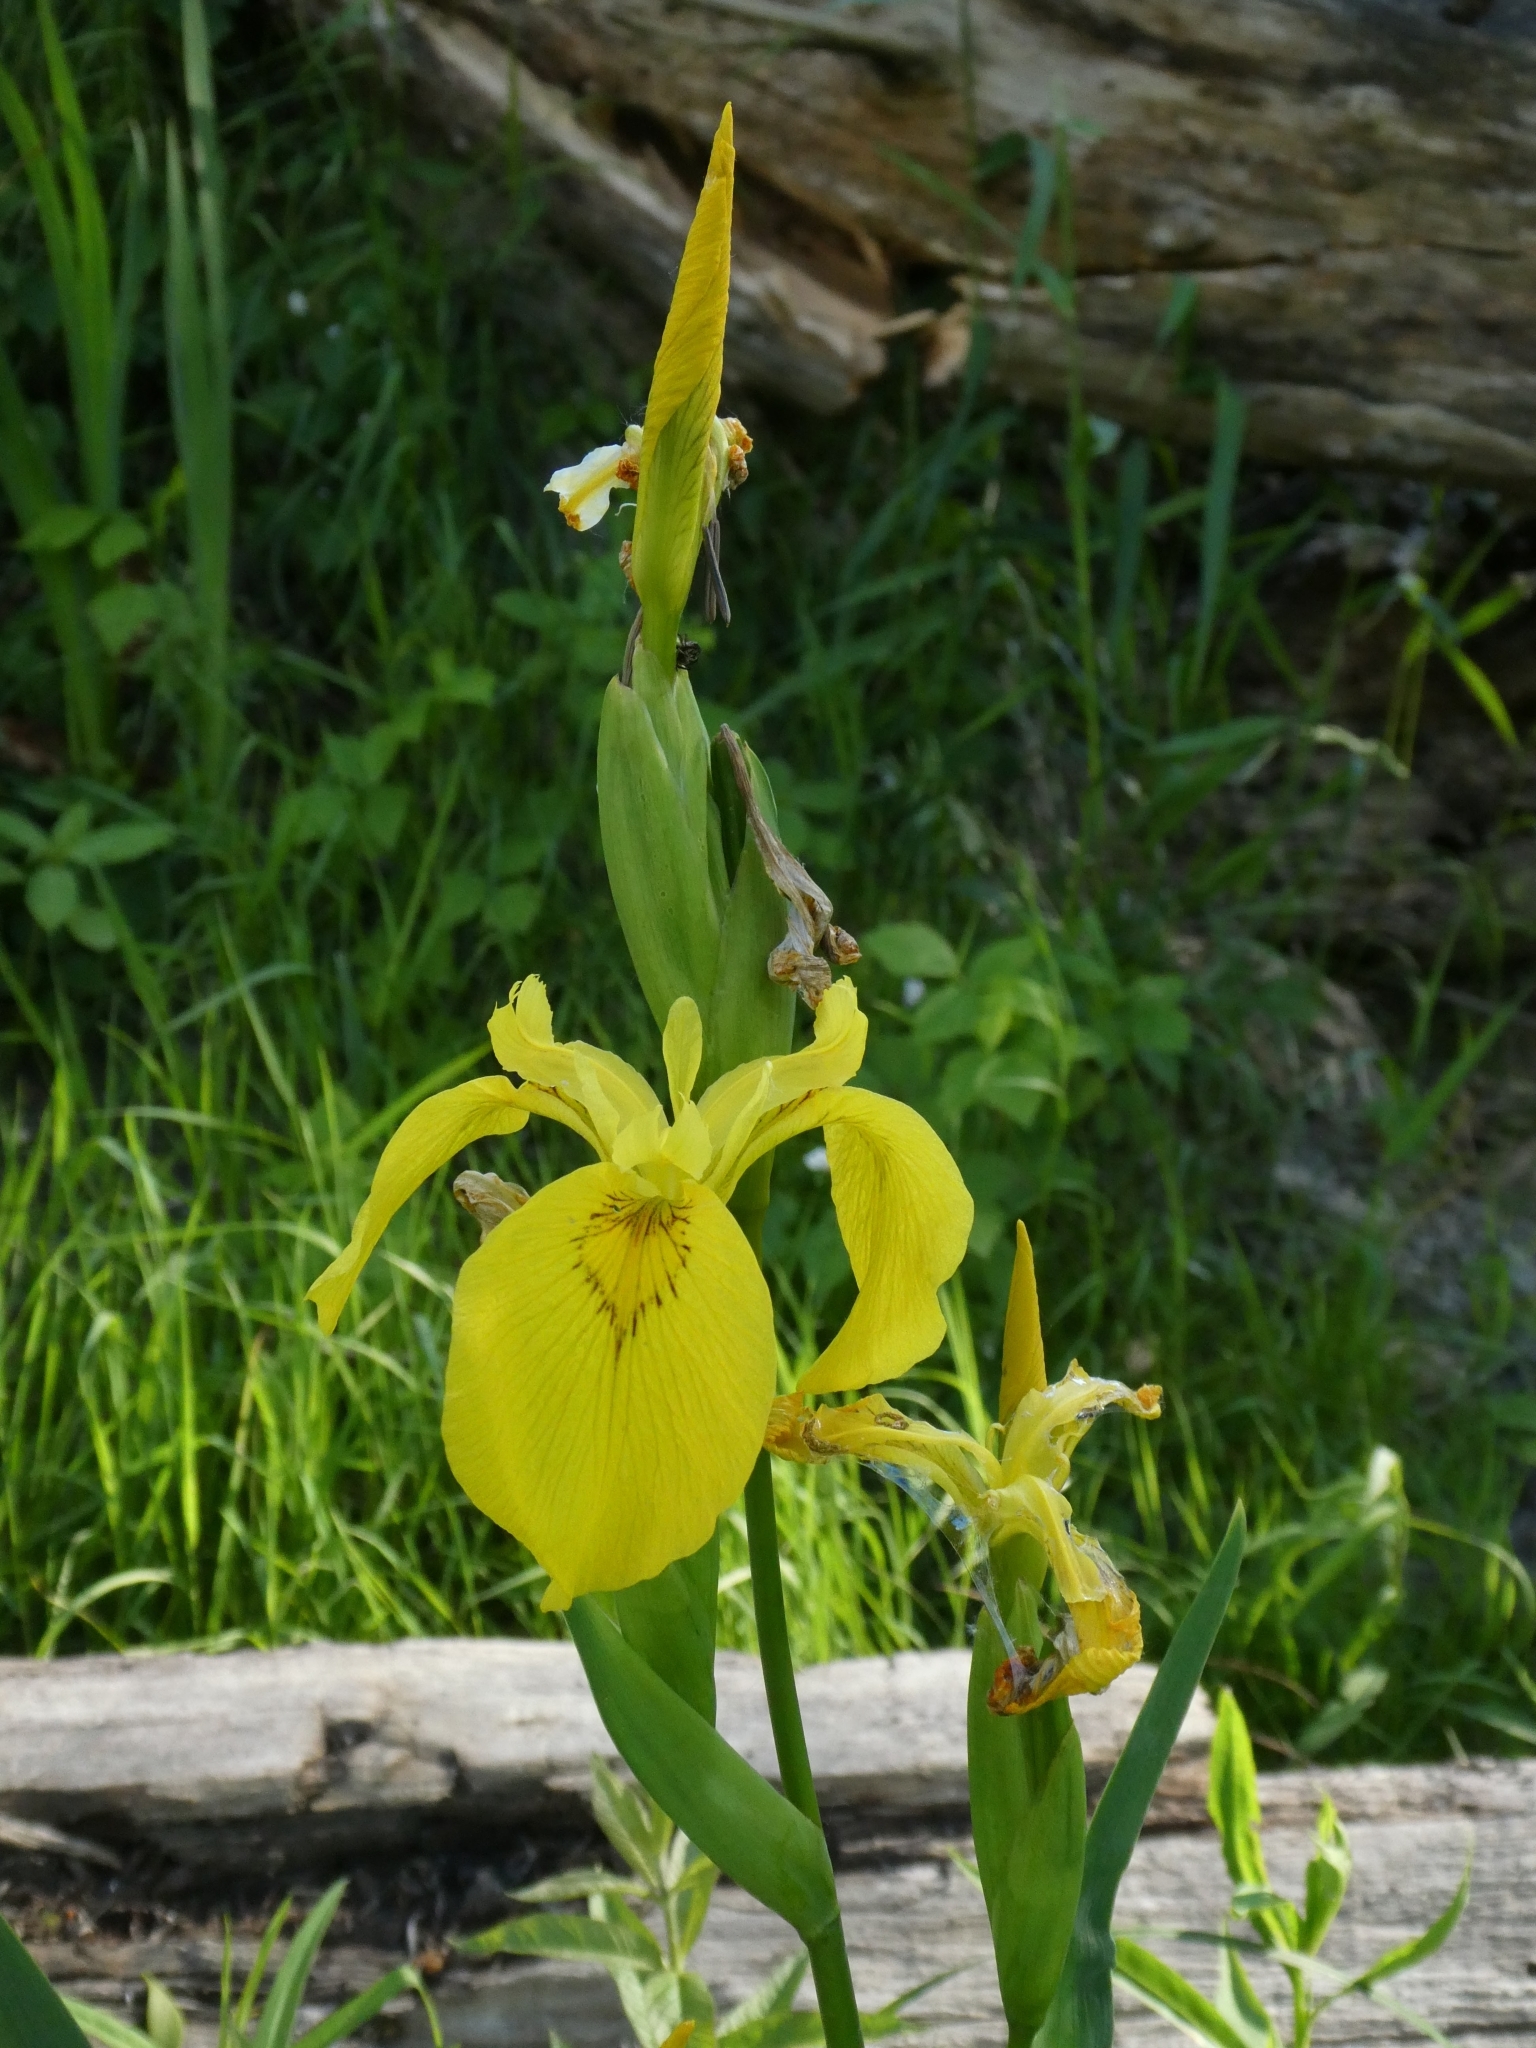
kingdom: Plantae
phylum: Tracheophyta
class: Liliopsida
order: Asparagales
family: Iridaceae
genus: Iris
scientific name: Iris pseudacorus
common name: Yellow flag
